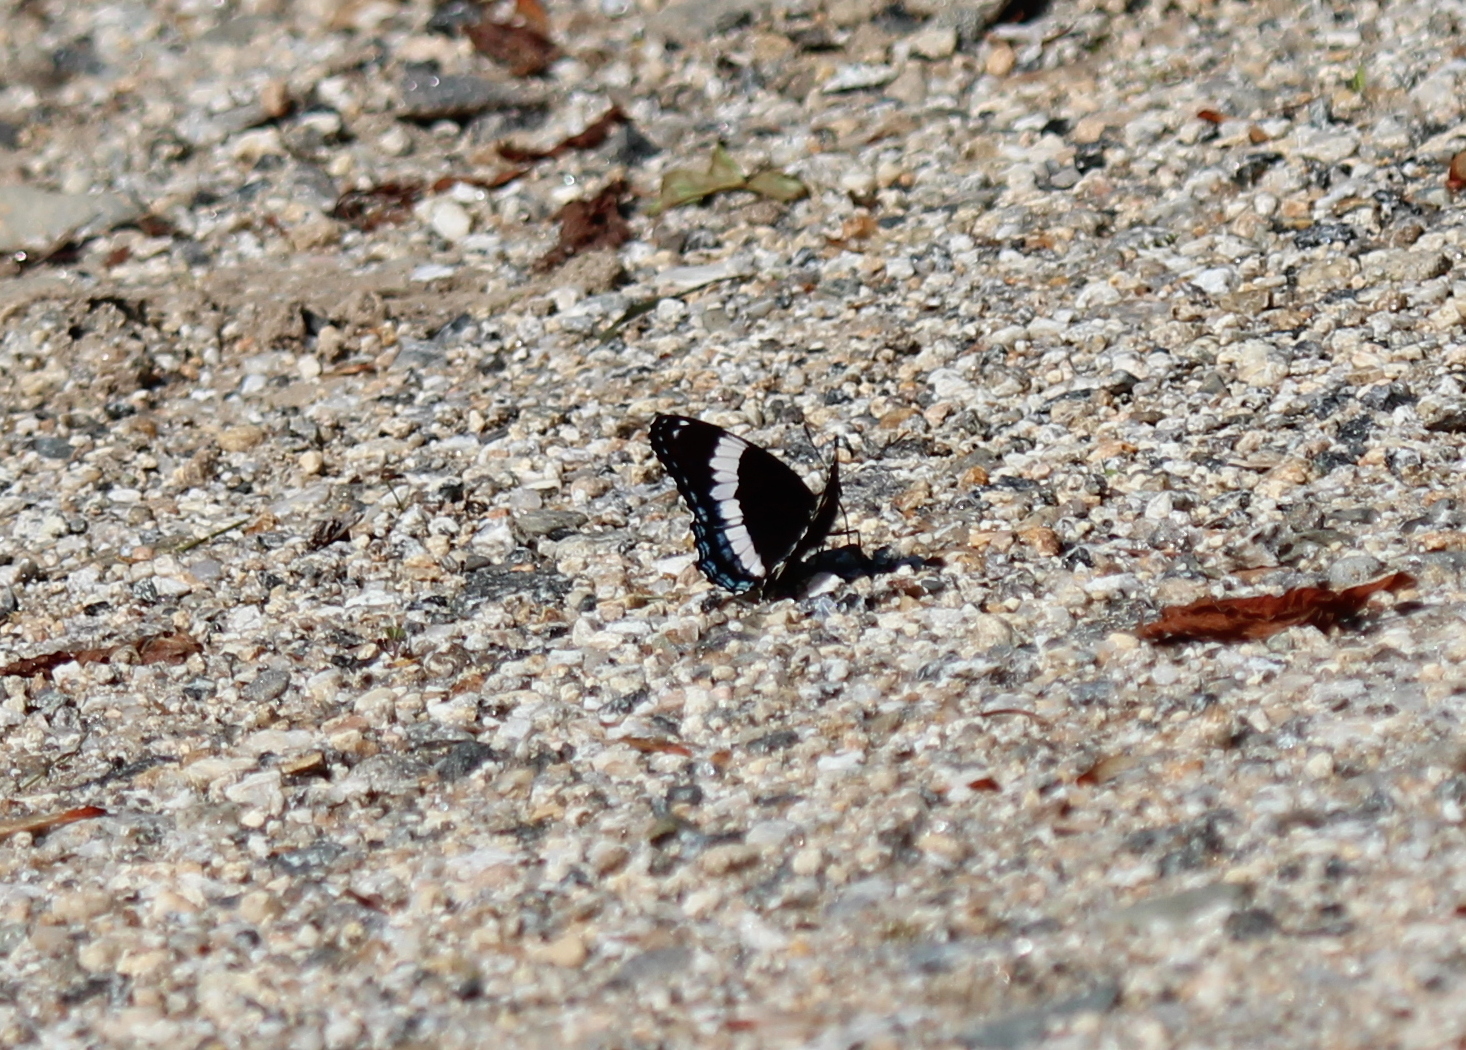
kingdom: Animalia
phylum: Arthropoda
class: Insecta
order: Lepidoptera
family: Nymphalidae
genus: Limenitis
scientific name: Limenitis arthemis
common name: Red-spotted admiral
